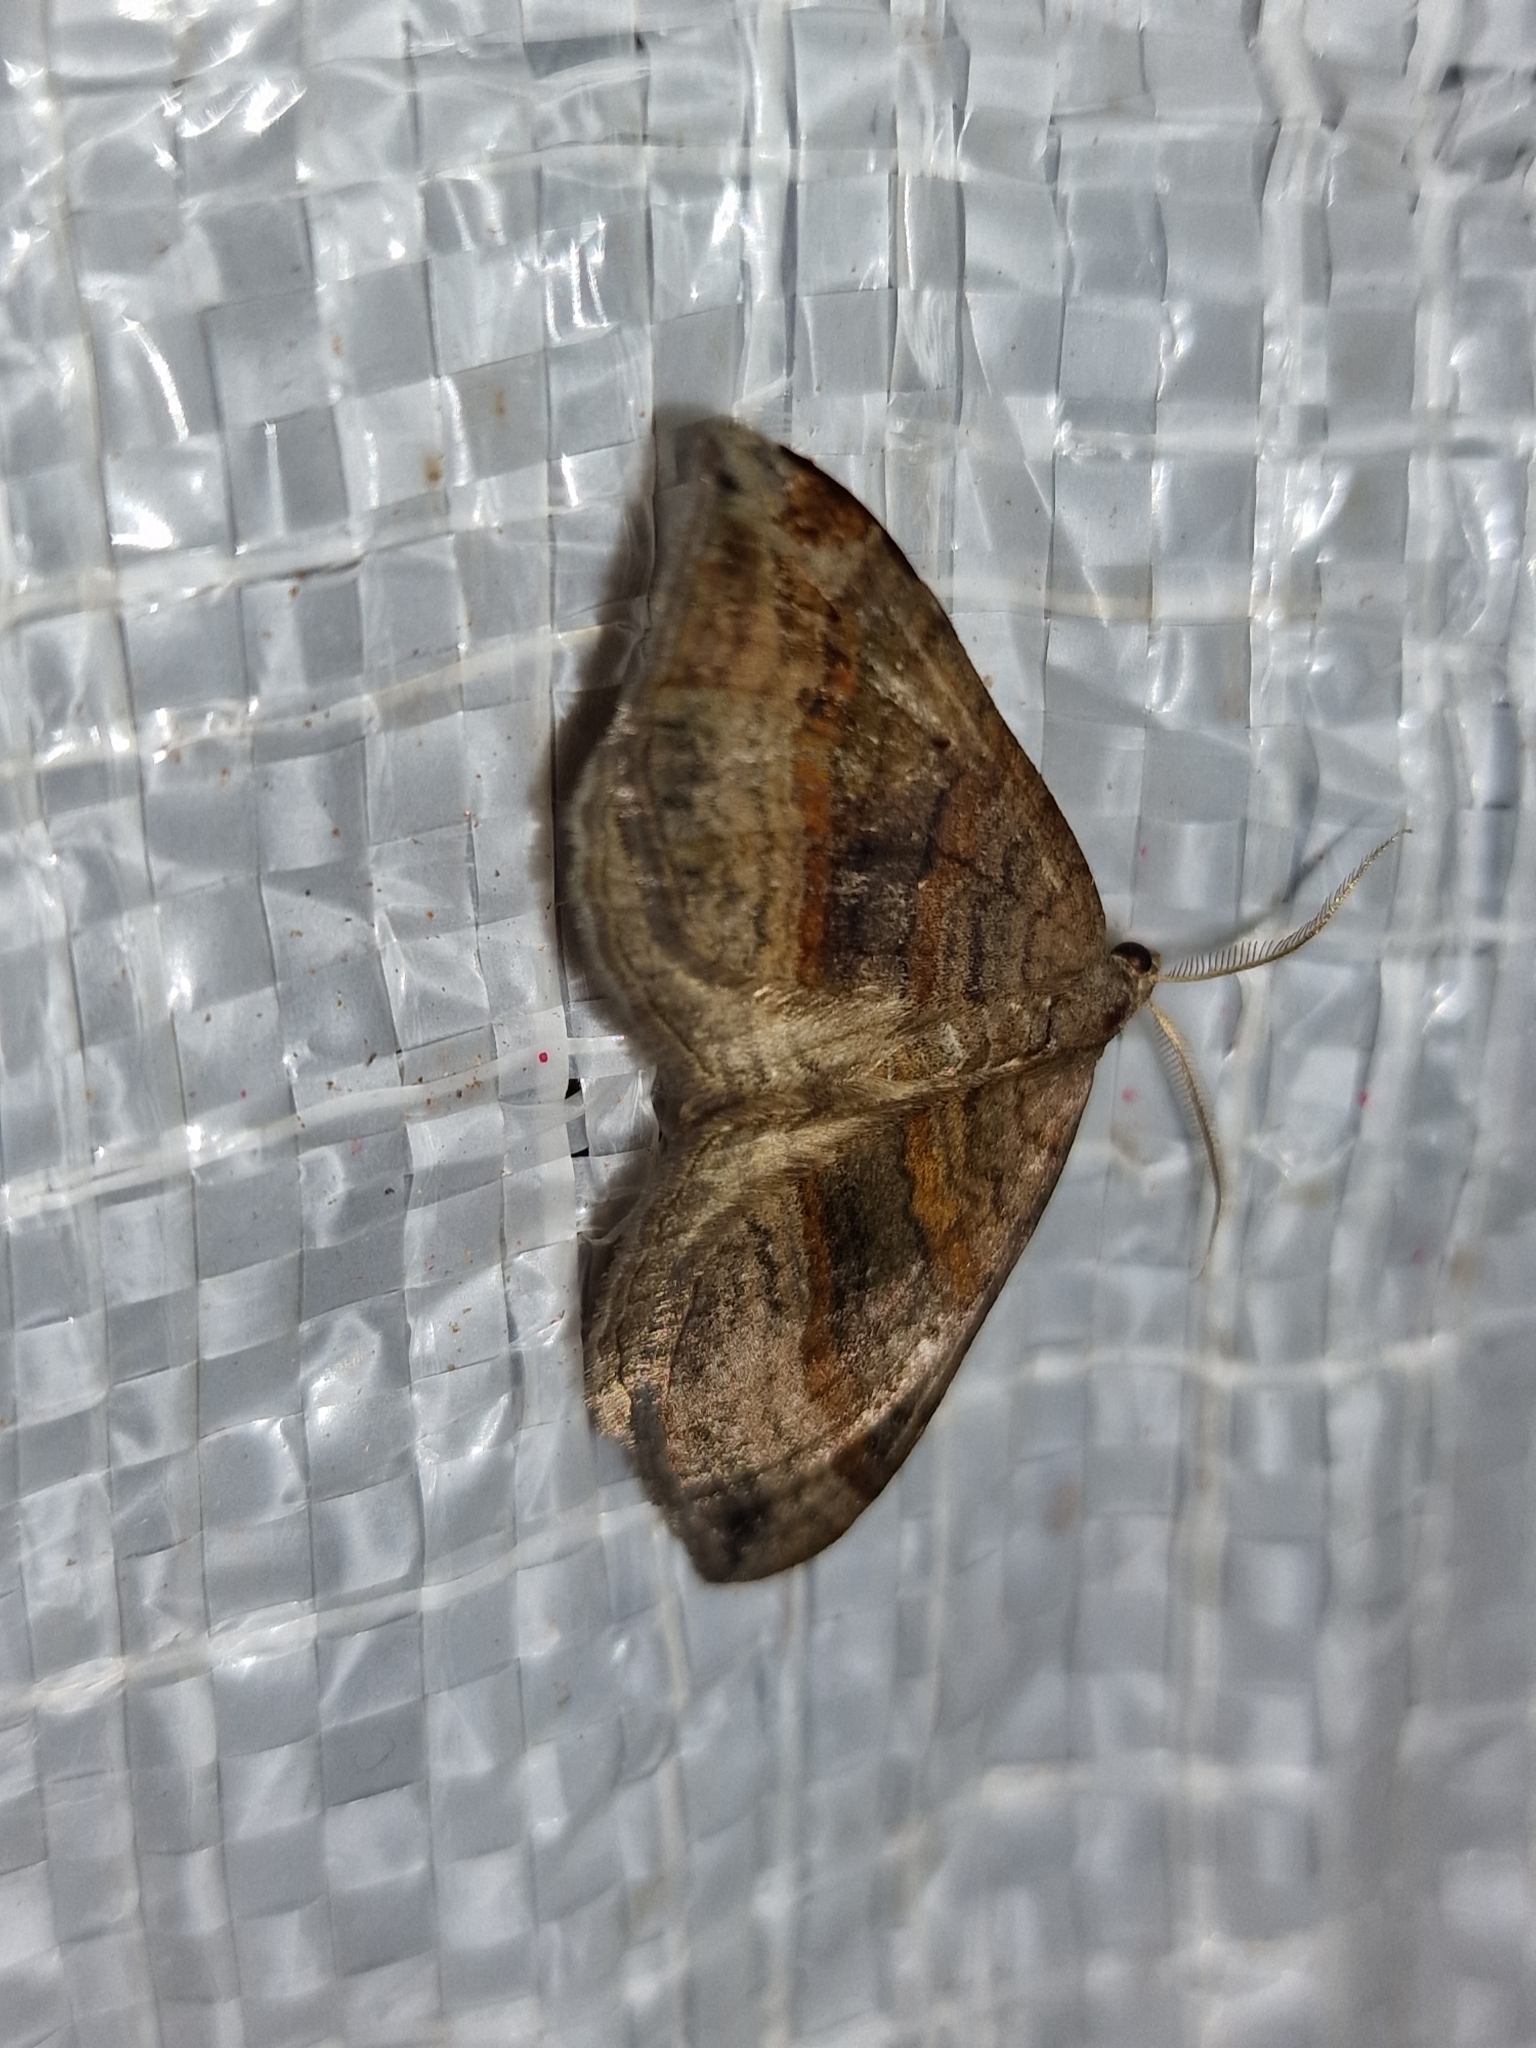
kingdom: Animalia
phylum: Arthropoda
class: Insecta
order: Lepidoptera
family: Geometridae
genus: Scotopteryx
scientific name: Scotopteryx chenopodiata
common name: Shaded broad-bar
